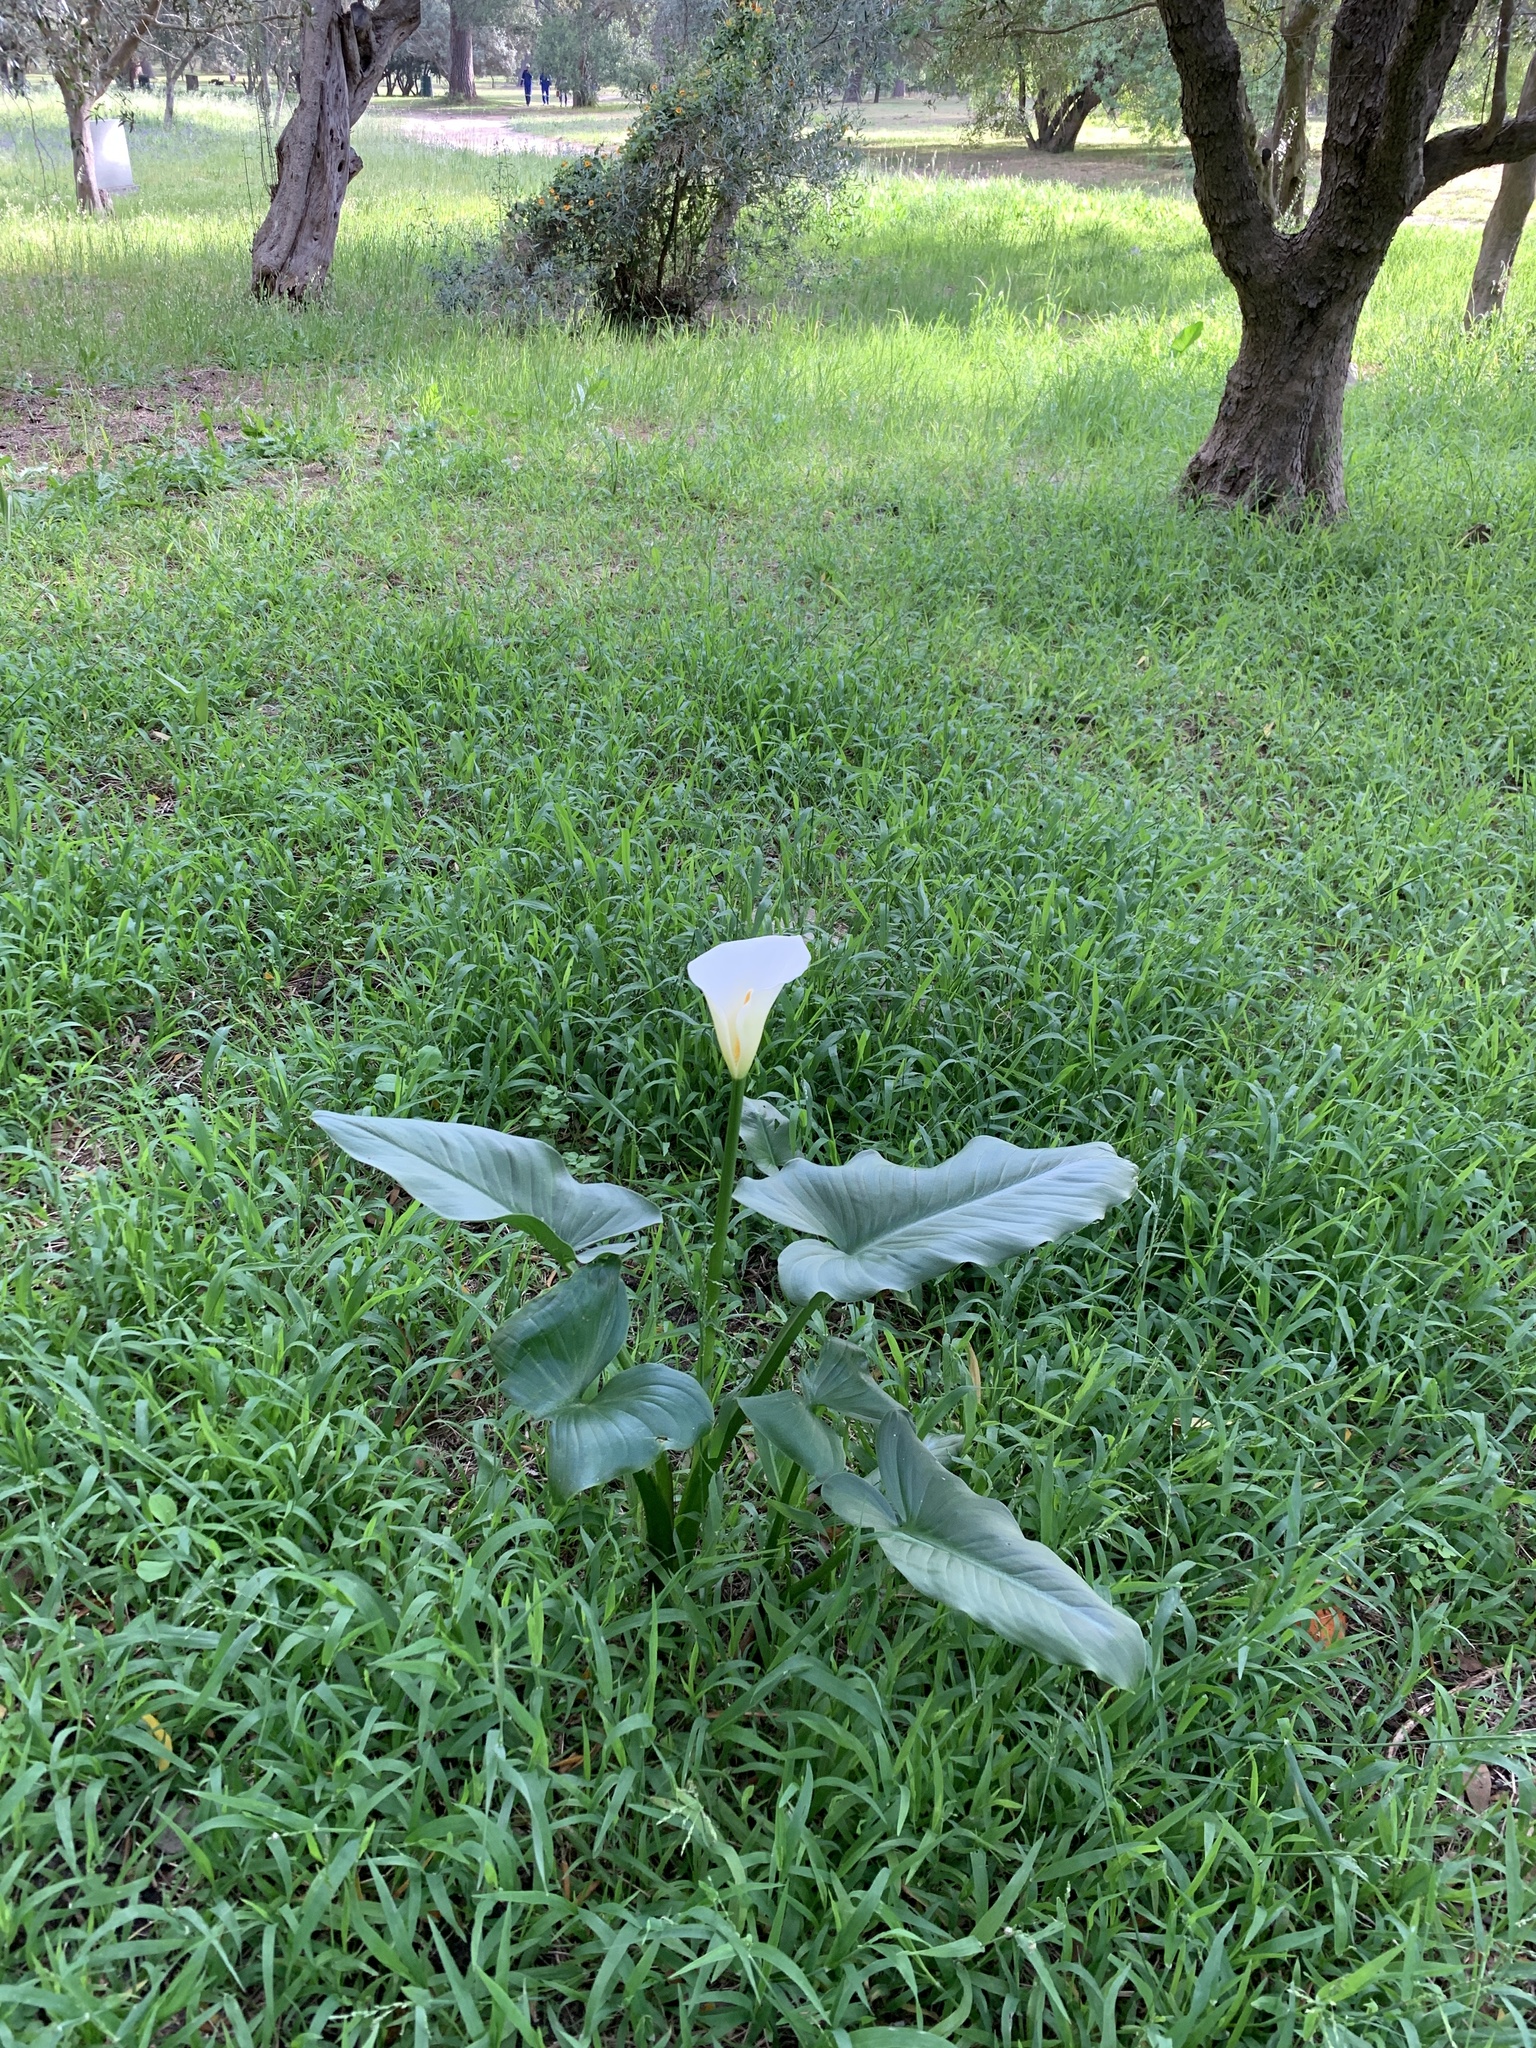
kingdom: Plantae
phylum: Tracheophyta
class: Liliopsida
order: Alismatales
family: Araceae
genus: Zantedeschia
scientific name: Zantedeschia aethiopica
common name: Altar-lily
